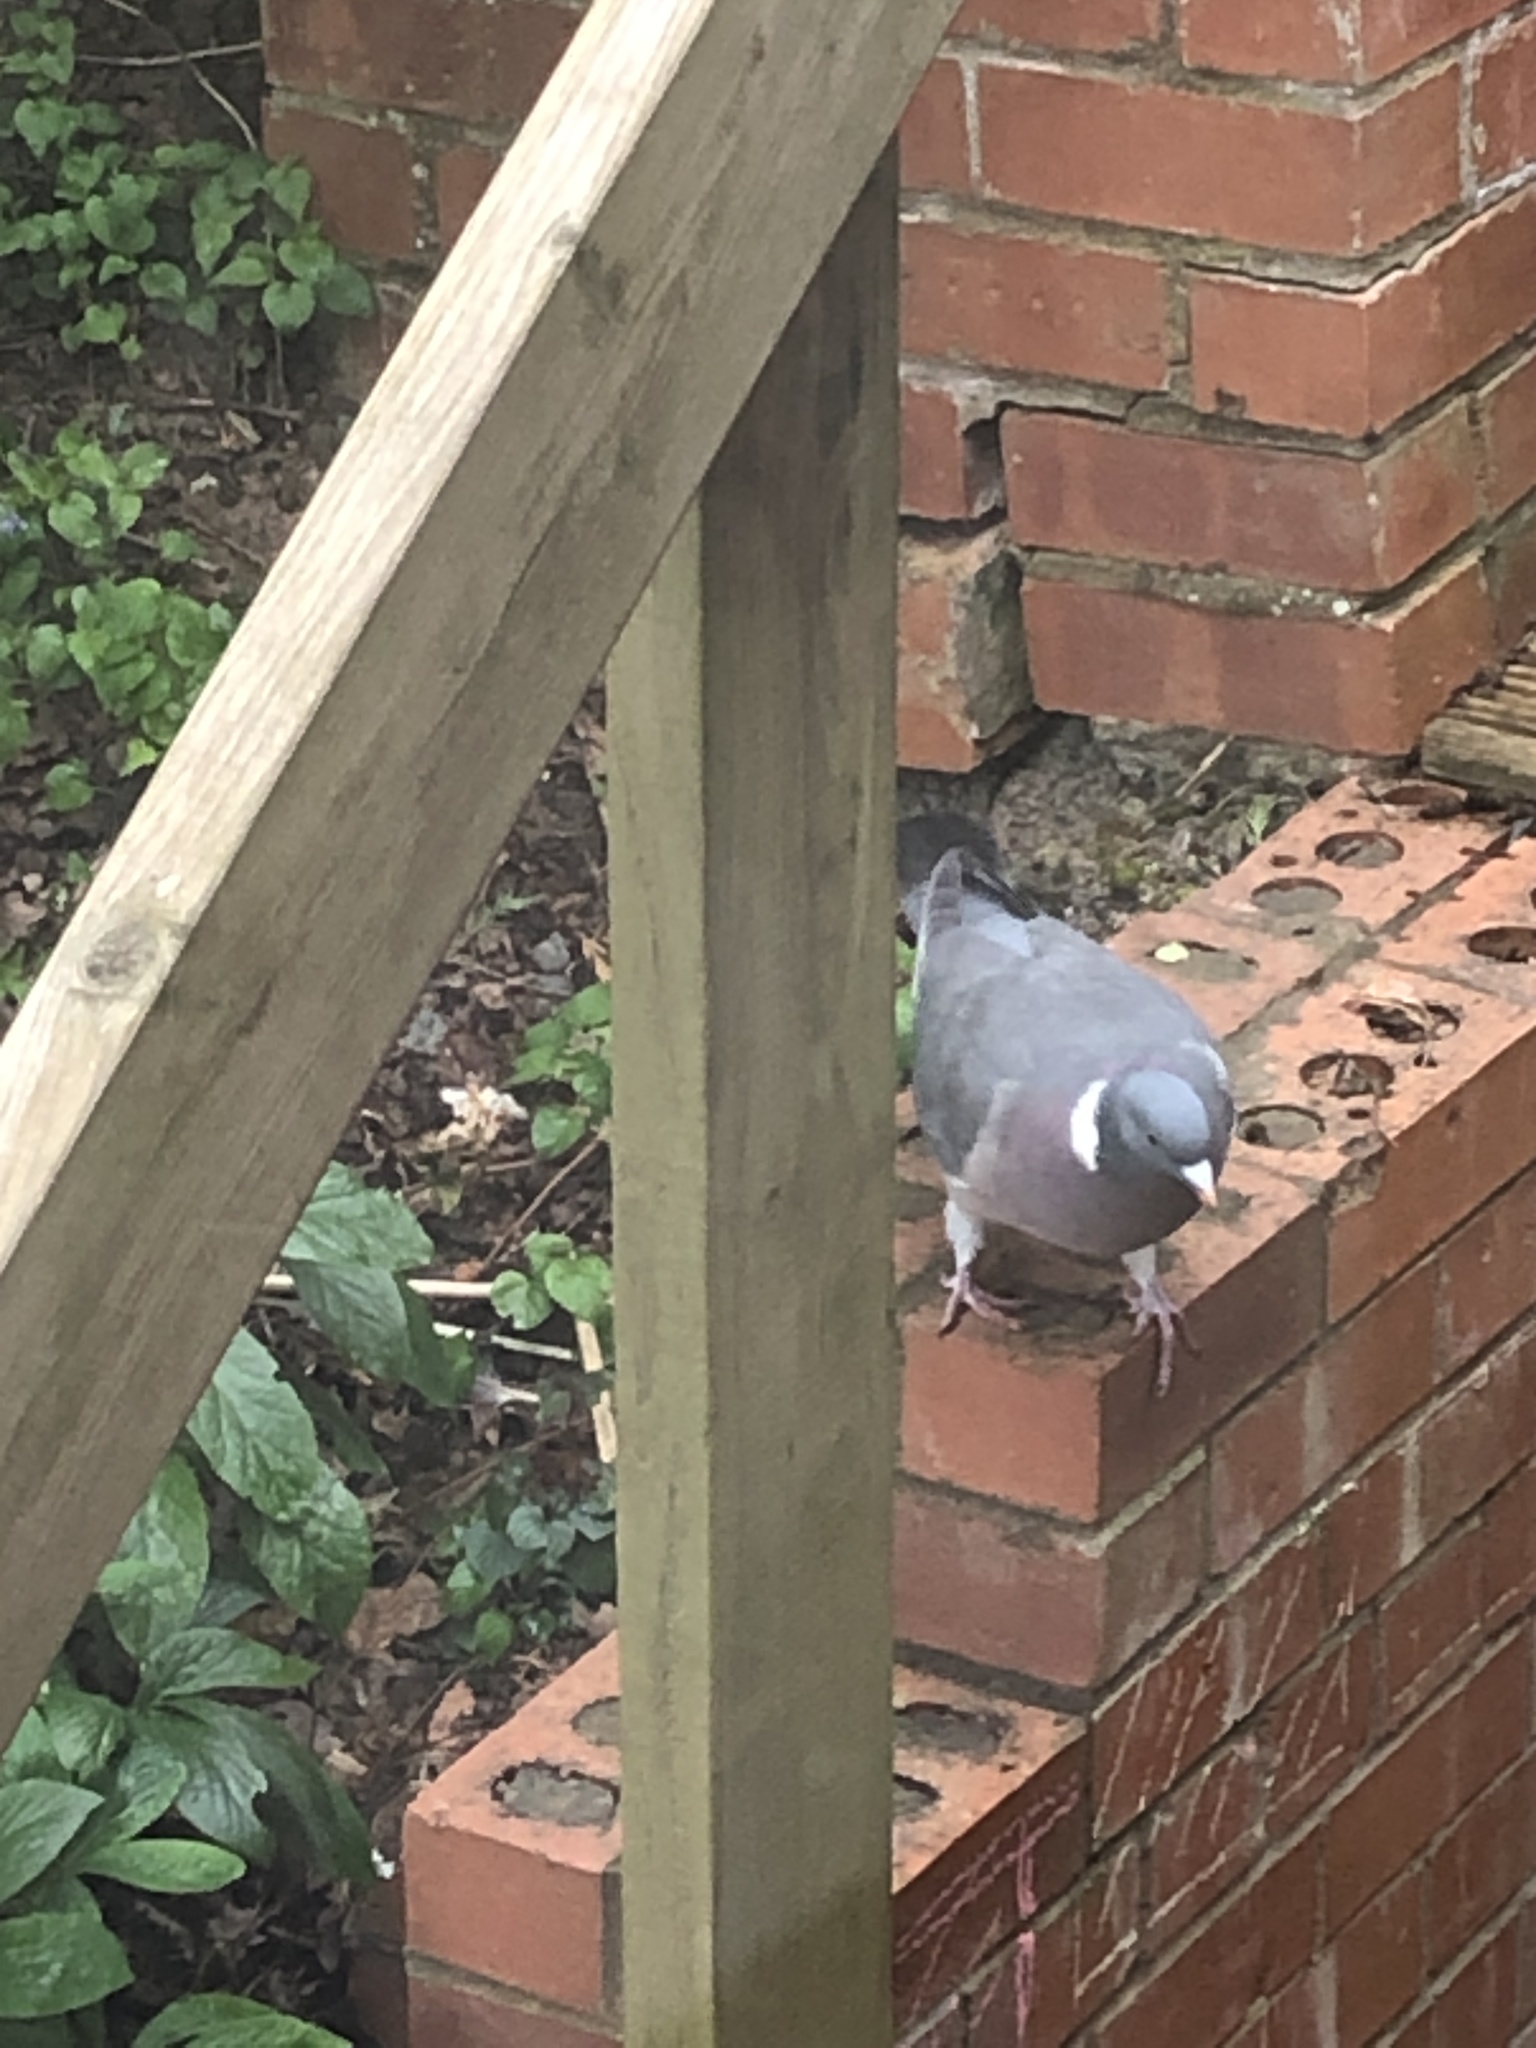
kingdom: Animalia
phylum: Chordata
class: Aves
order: Columbiformes
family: Columbidae
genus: Columba
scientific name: Columba palumbus
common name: Common wood pigeon
